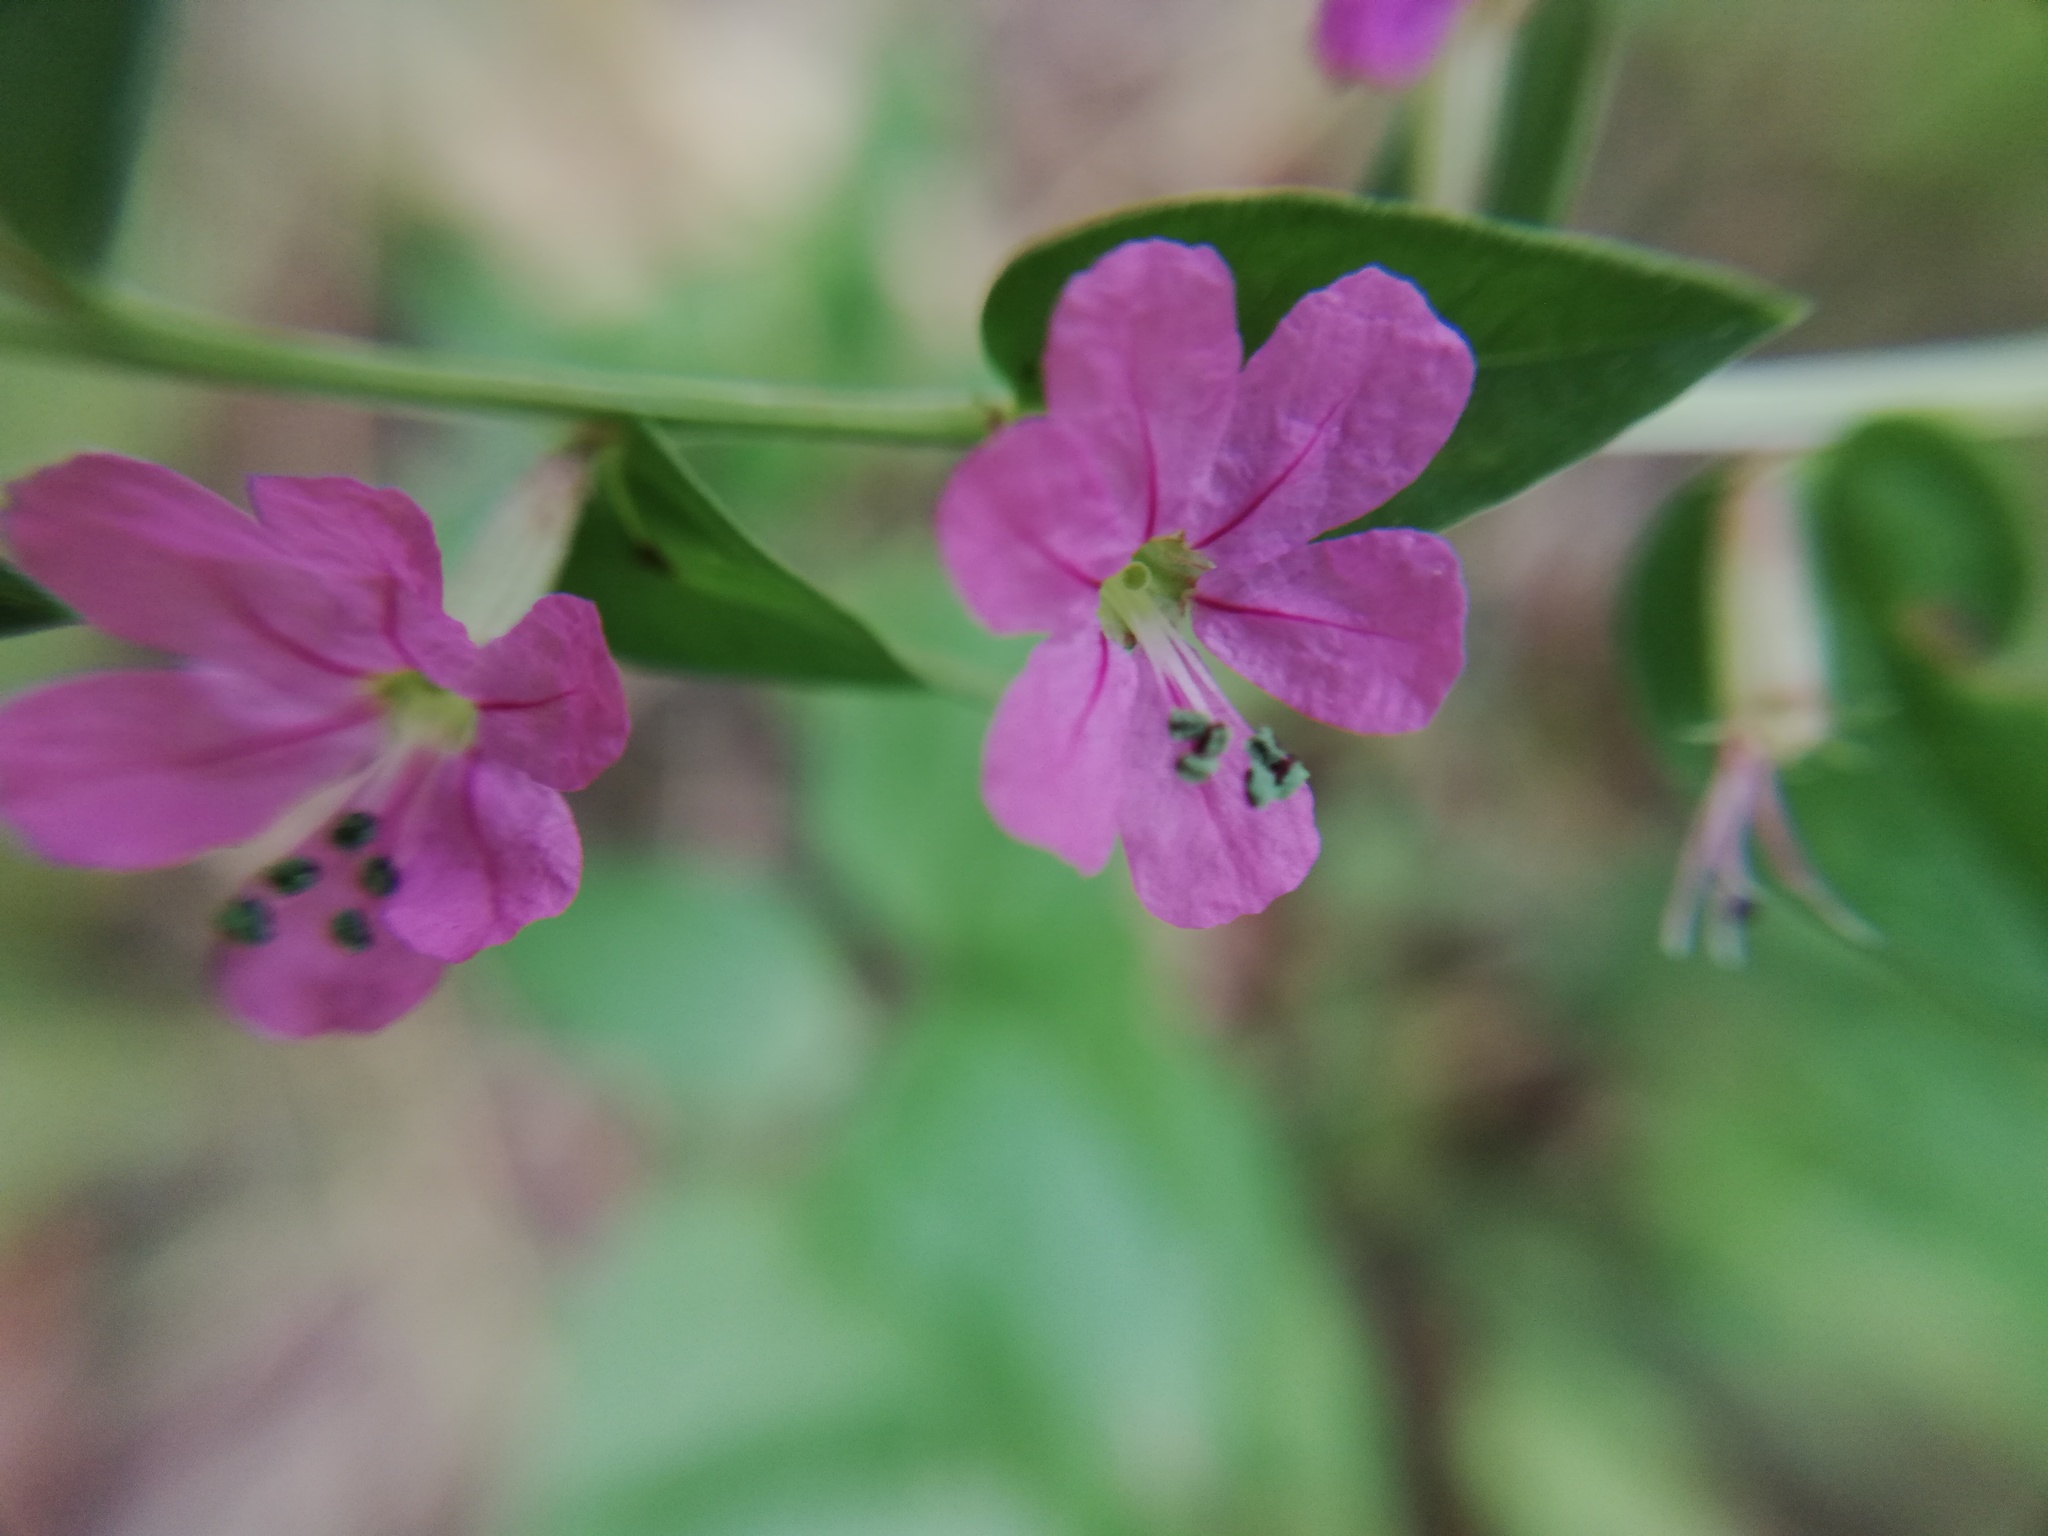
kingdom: Plantae
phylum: Tracheophyta
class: Magnoliopsida
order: Myrtales
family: Lythraceae
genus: Lythrum
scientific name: Lythrum alatum
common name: Winged loosestrife
